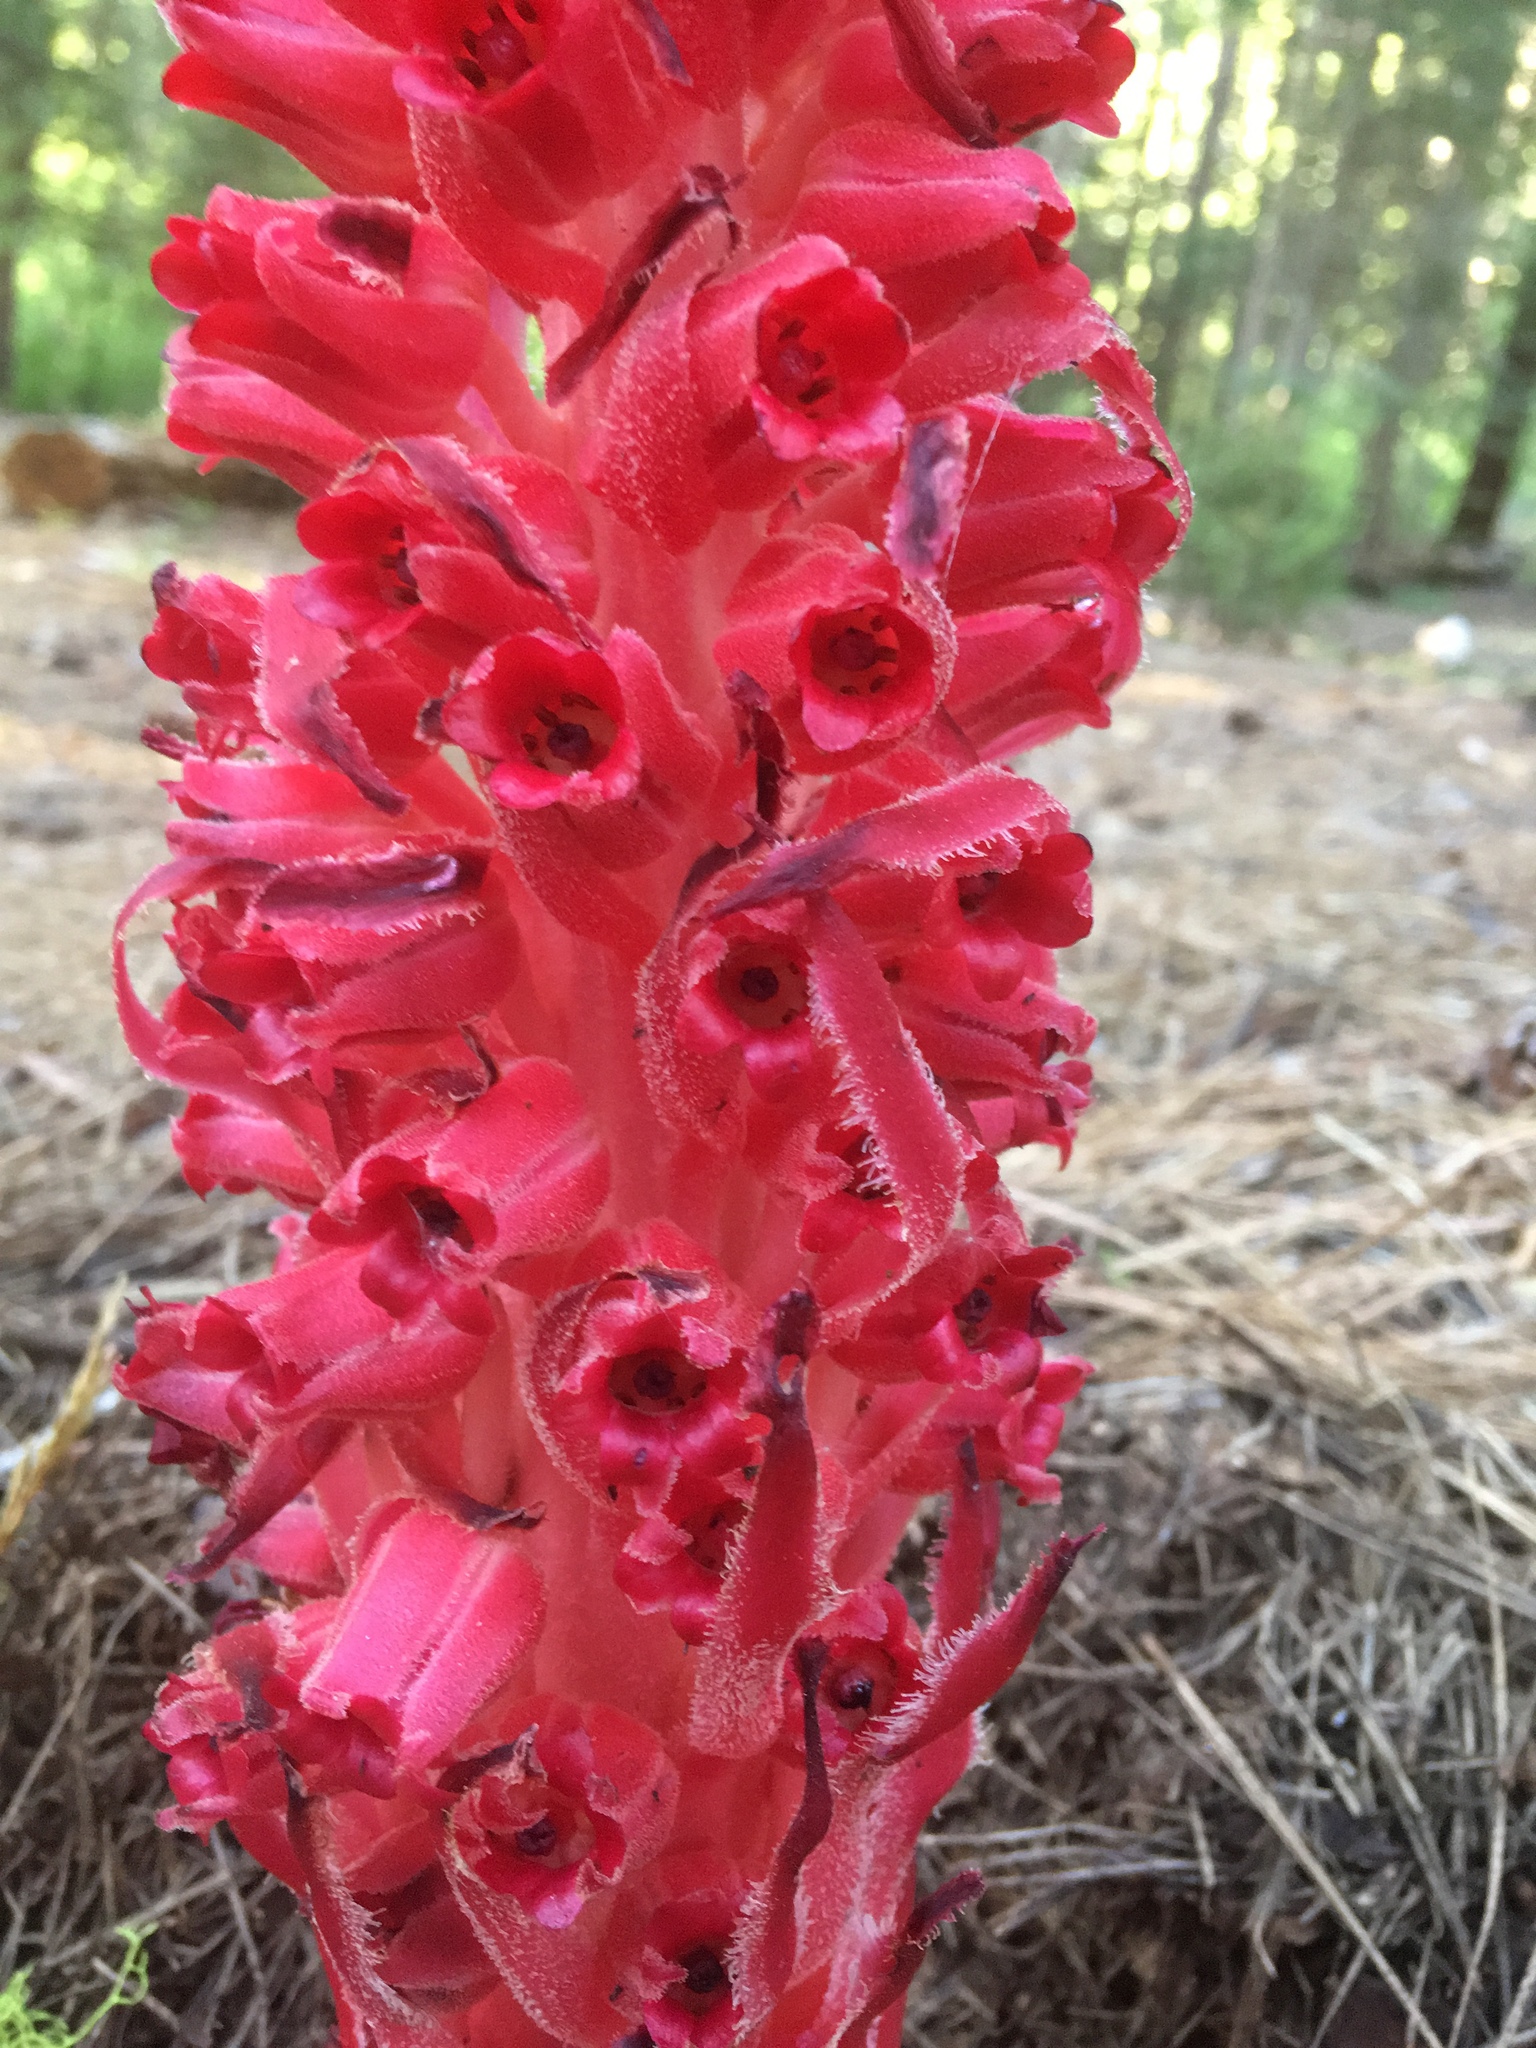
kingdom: Plantae
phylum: Tracheophyta
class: Magnoliopsida
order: Ericales
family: Ericaceae
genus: Sarcodes
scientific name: Sarcodes sanguinea
